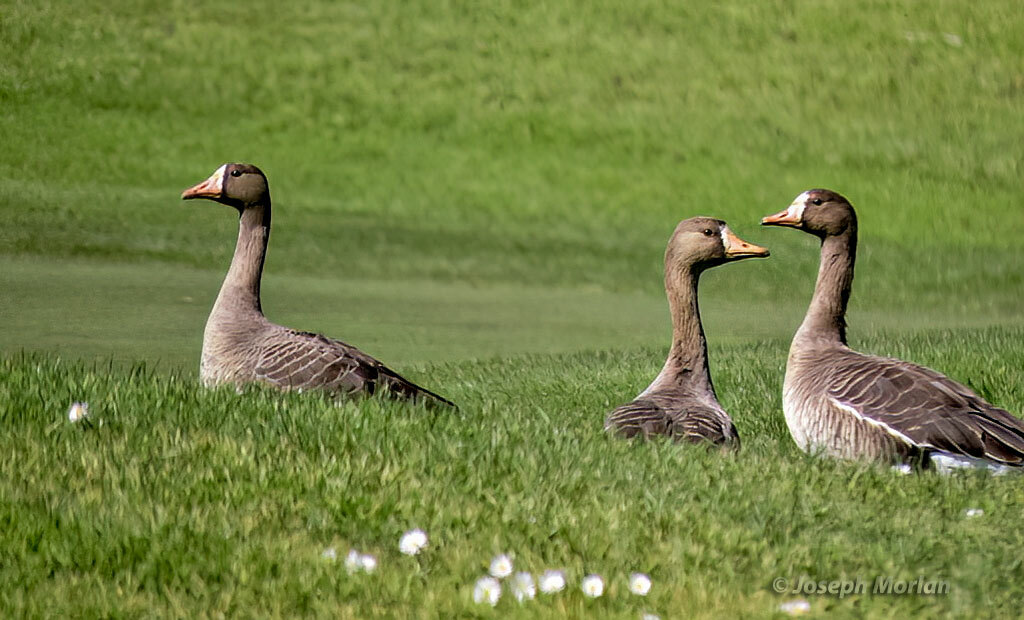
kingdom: Animalia
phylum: Chordata
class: Aves
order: Anseriformes
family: Anatidae
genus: Anser
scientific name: Anser albifrons
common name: Greater white-fronted goose
